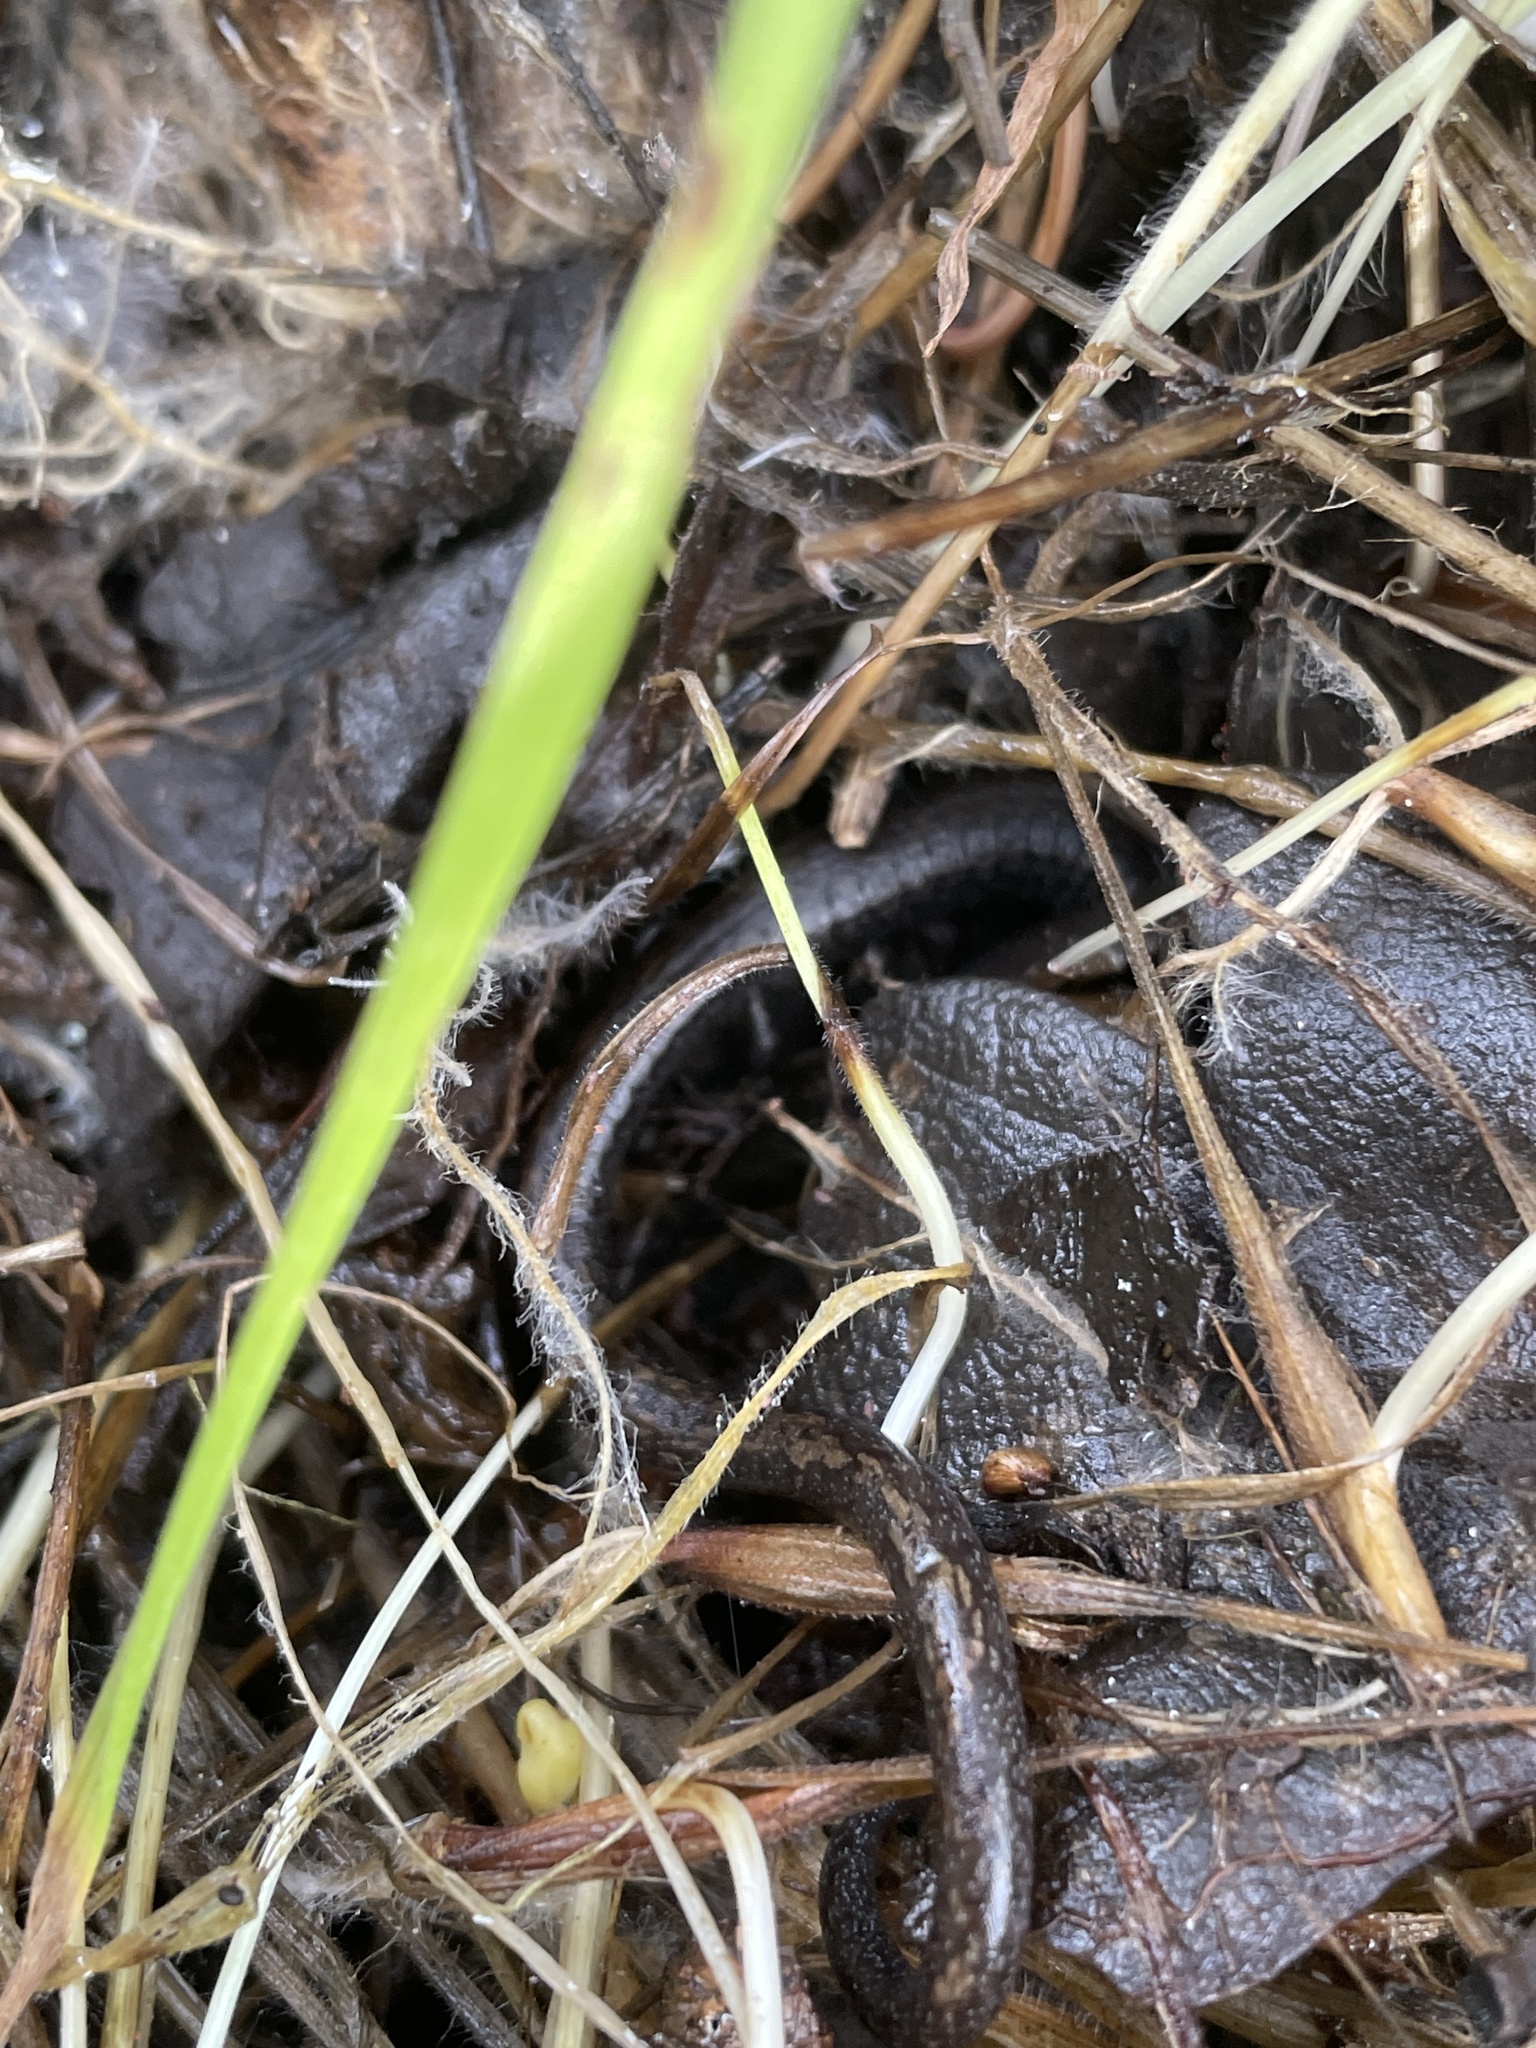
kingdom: Animalia
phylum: Chordata
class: Amphibia
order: Caudata
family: Plethodontidae
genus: Batrachoseps
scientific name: Batrachoseps attenuatus
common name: California slender salamander
